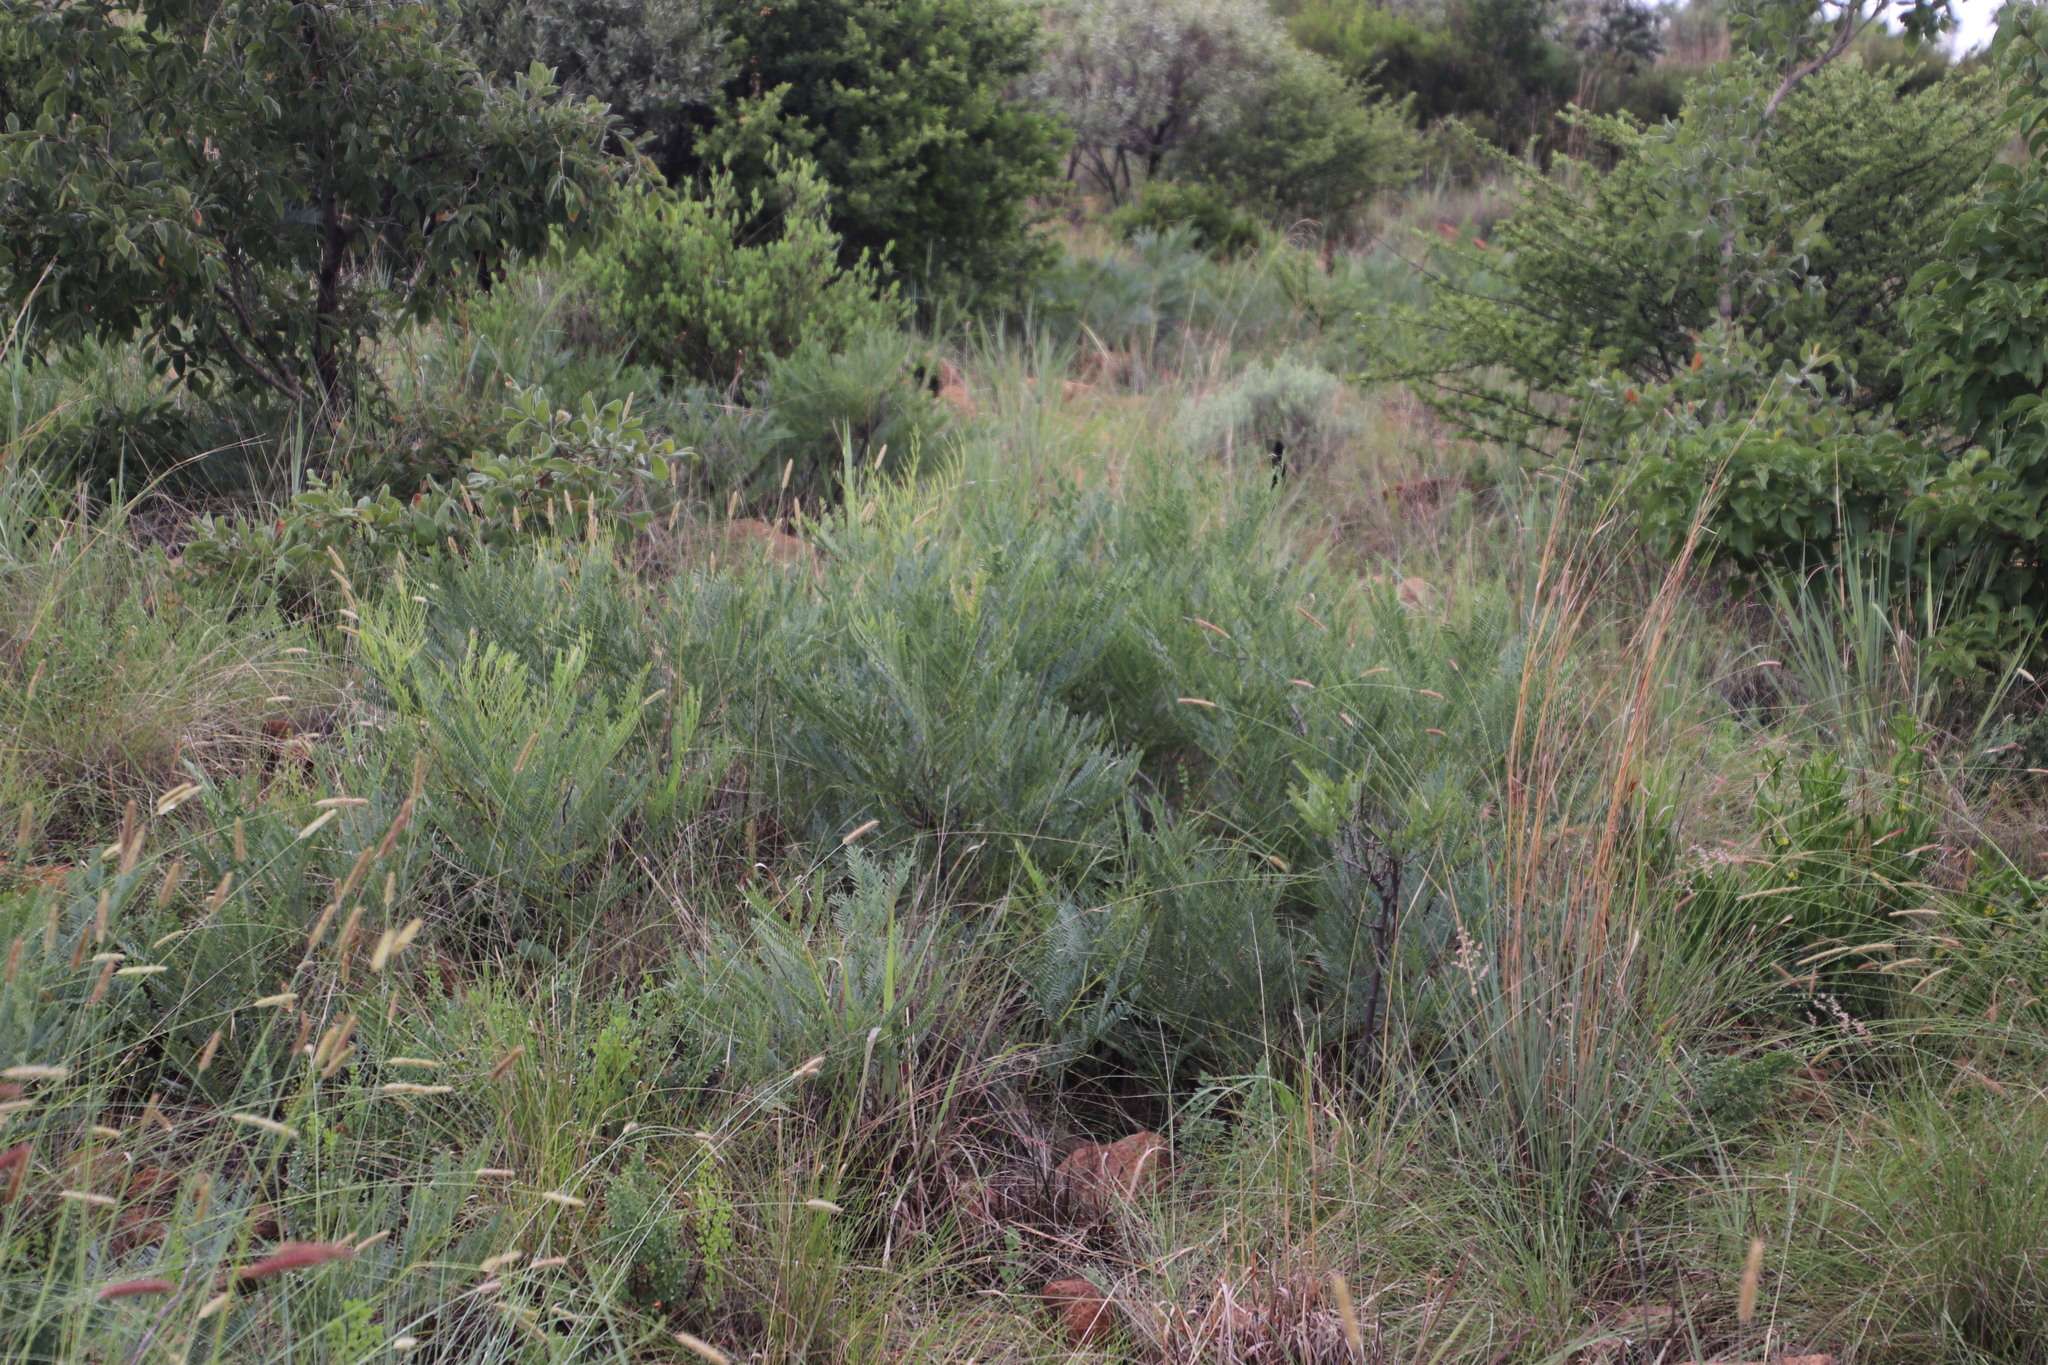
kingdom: Plantae
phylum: Tracheophyta
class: Magnoliopsida
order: Fabales
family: Fabaceae
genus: Elephantorrhiza
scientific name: Elephantorrhiza burkei
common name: Broad-pod elephant-root
